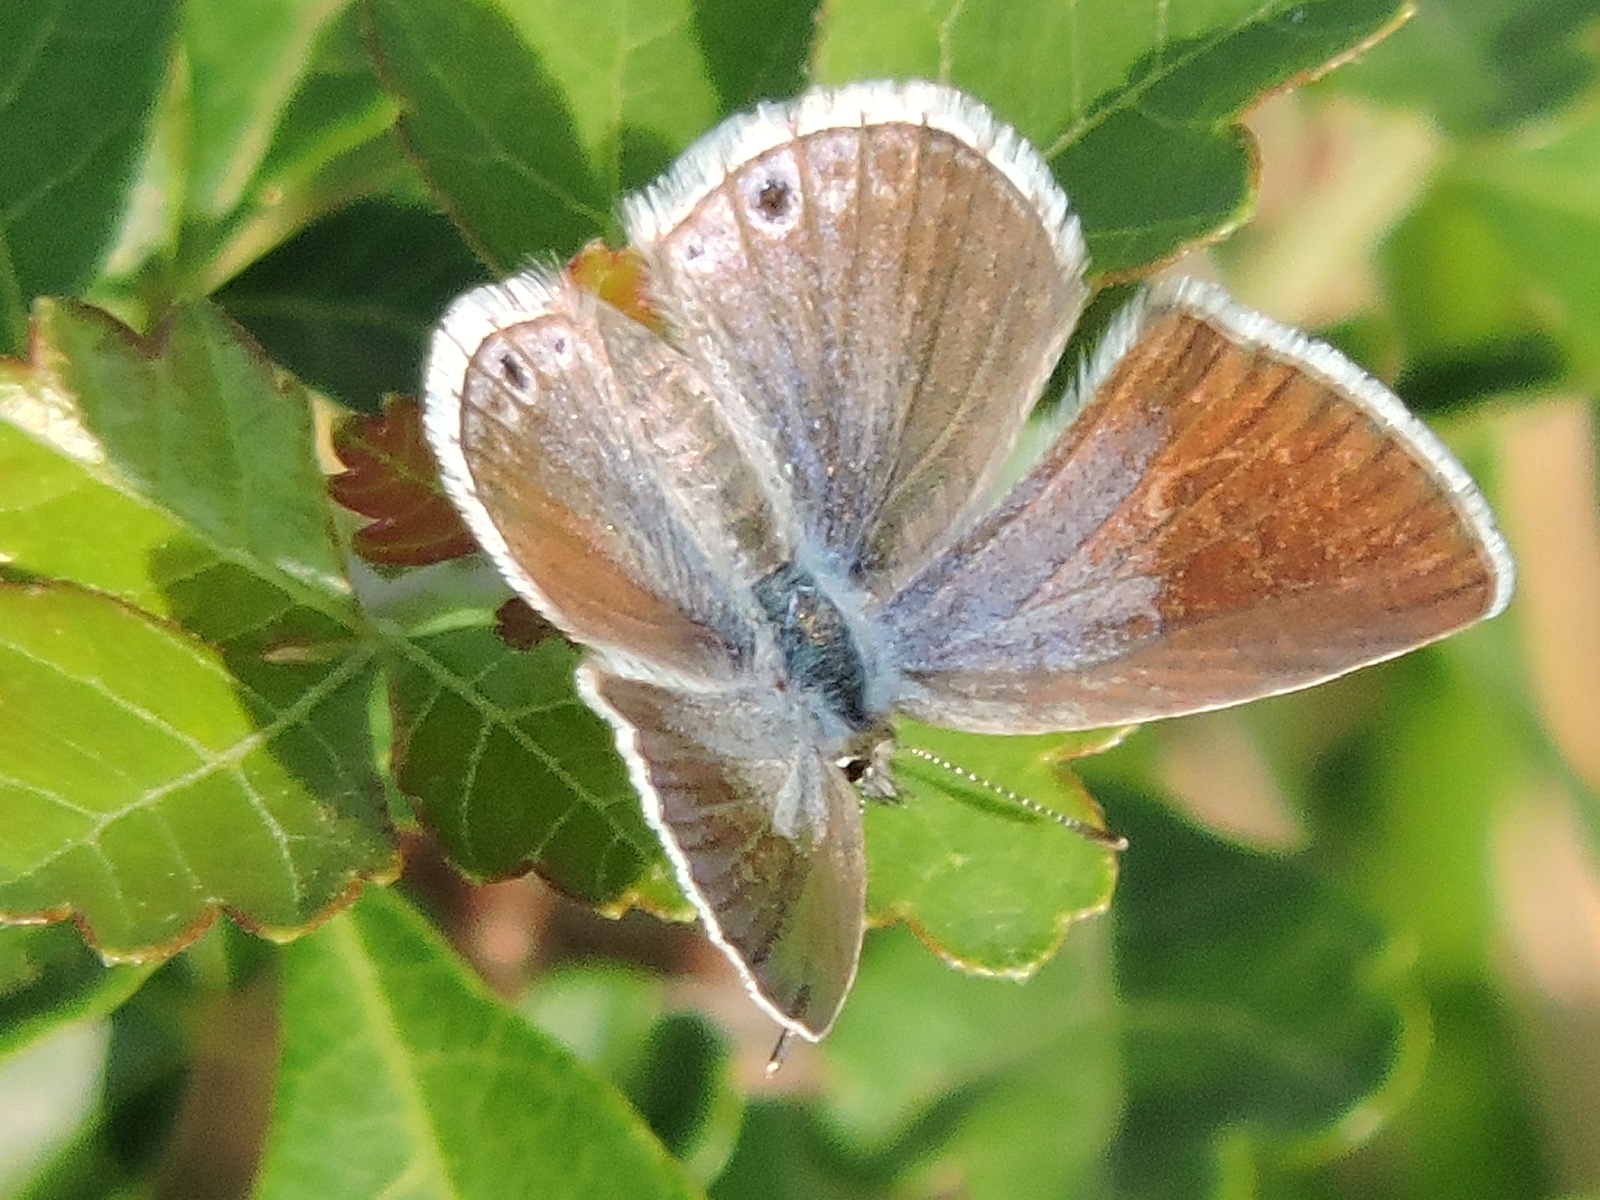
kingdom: Animalia
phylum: Arthropoda
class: Insecta
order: Lepidoptera
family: Lycaenidae
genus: Echinargus
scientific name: Echinargus isola
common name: Reakirt's blue
